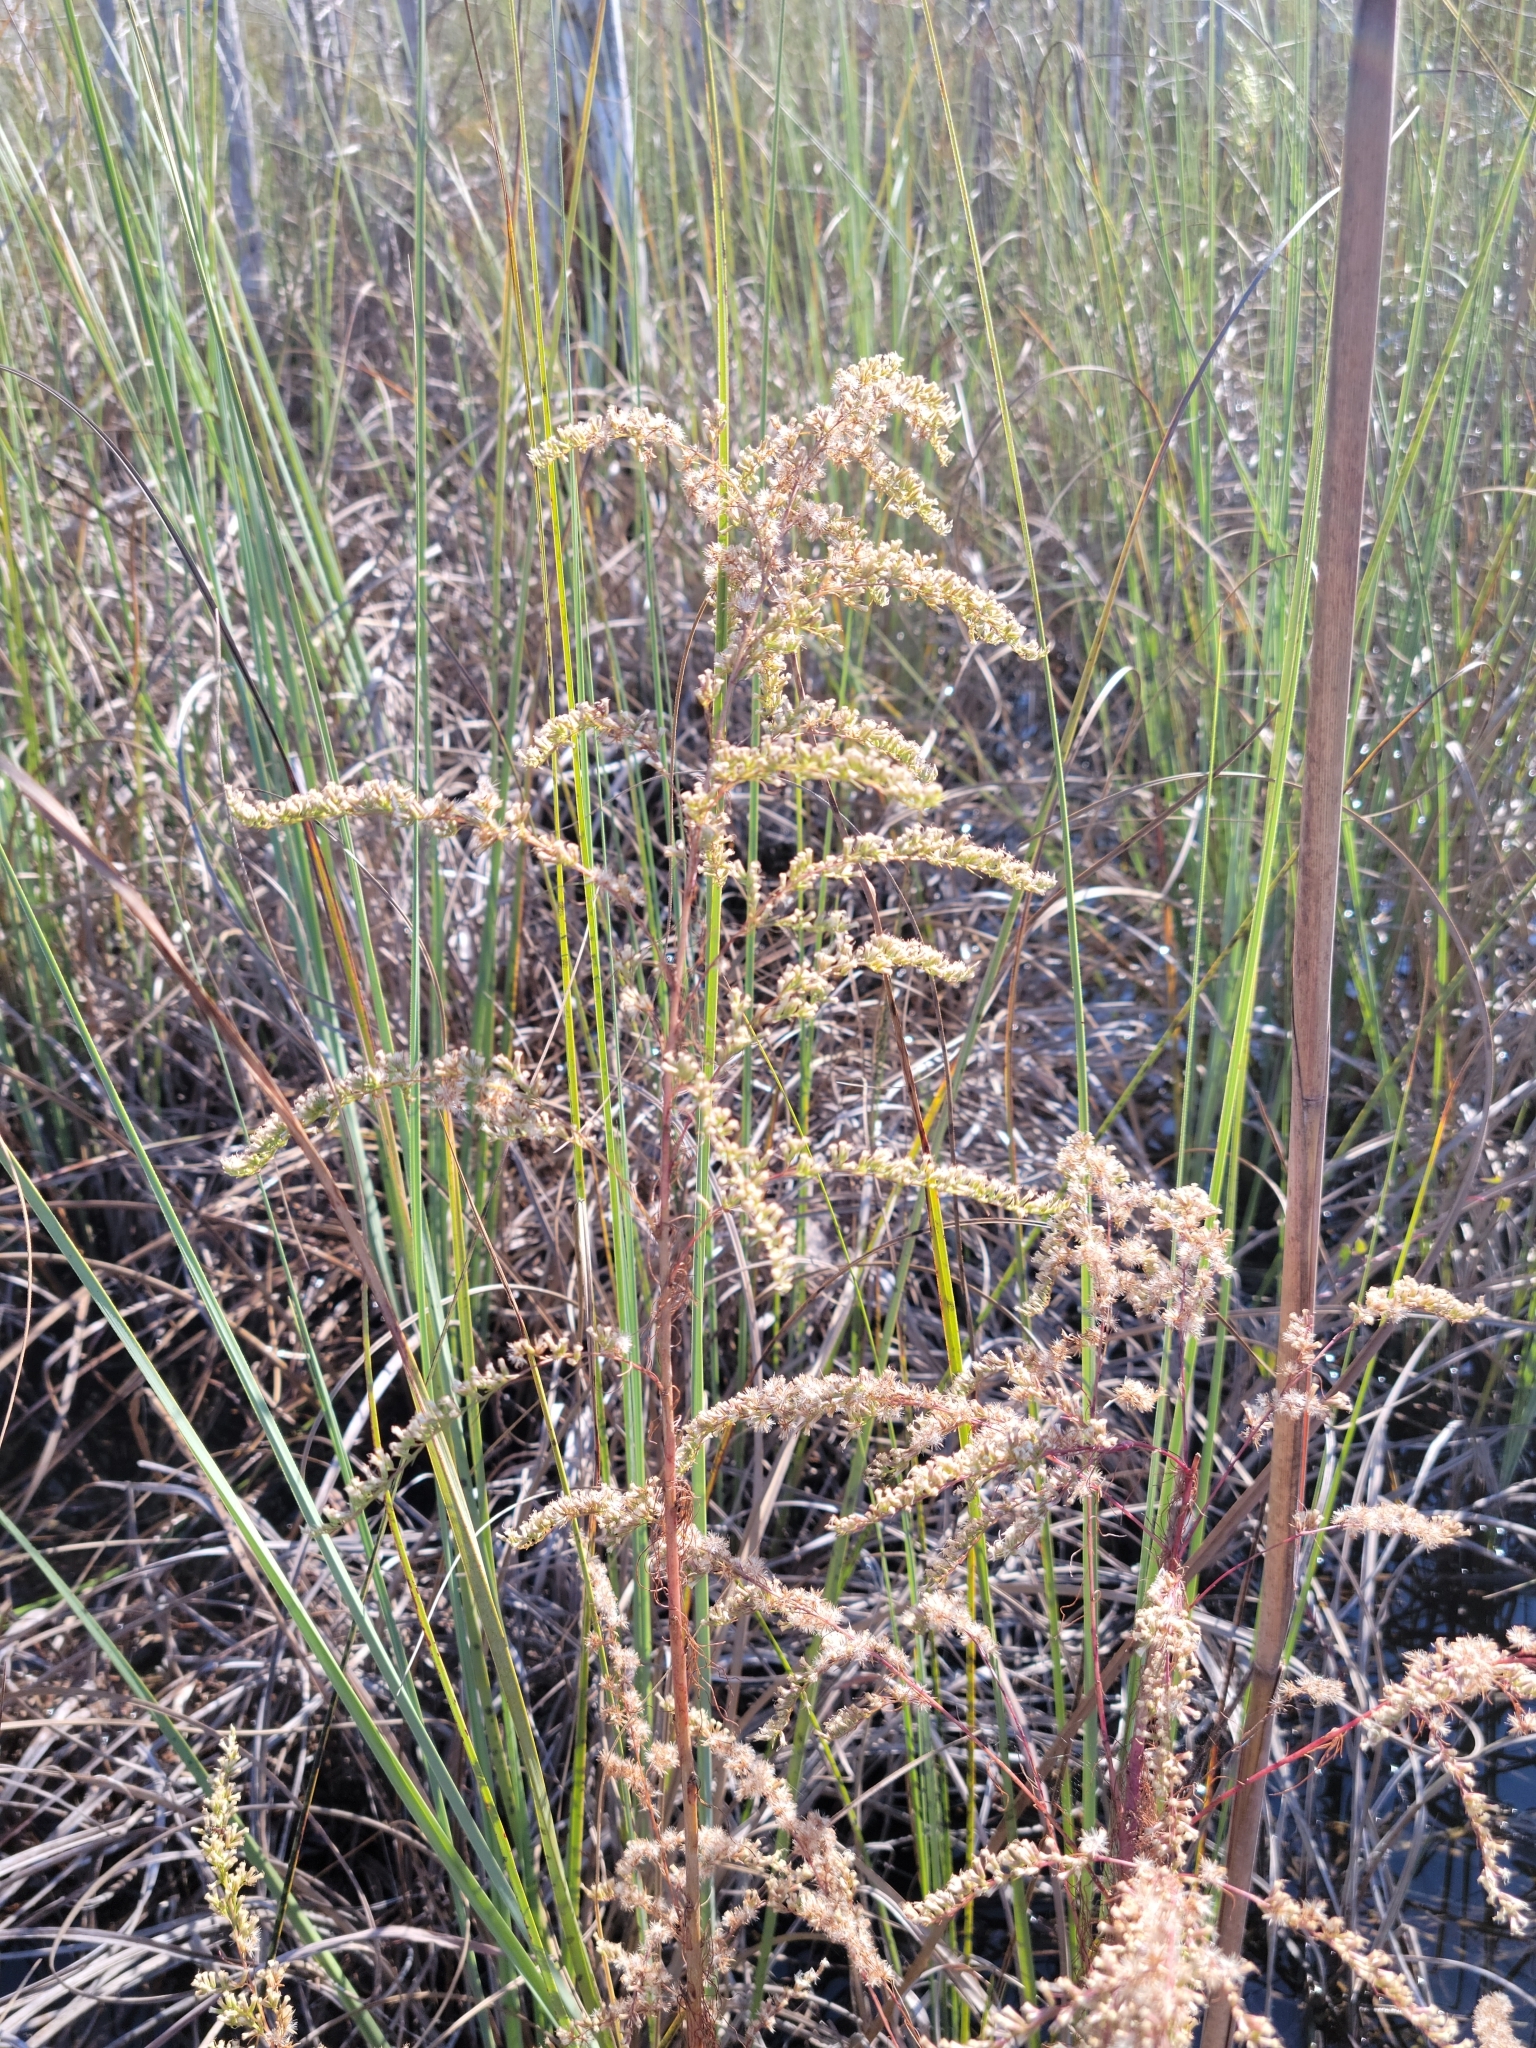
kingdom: Plantae
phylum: Tracheophyta
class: Magnoliopsida
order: Asterales
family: Asteraceae
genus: Eupatorium
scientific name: Eupatorium leptophyllum
